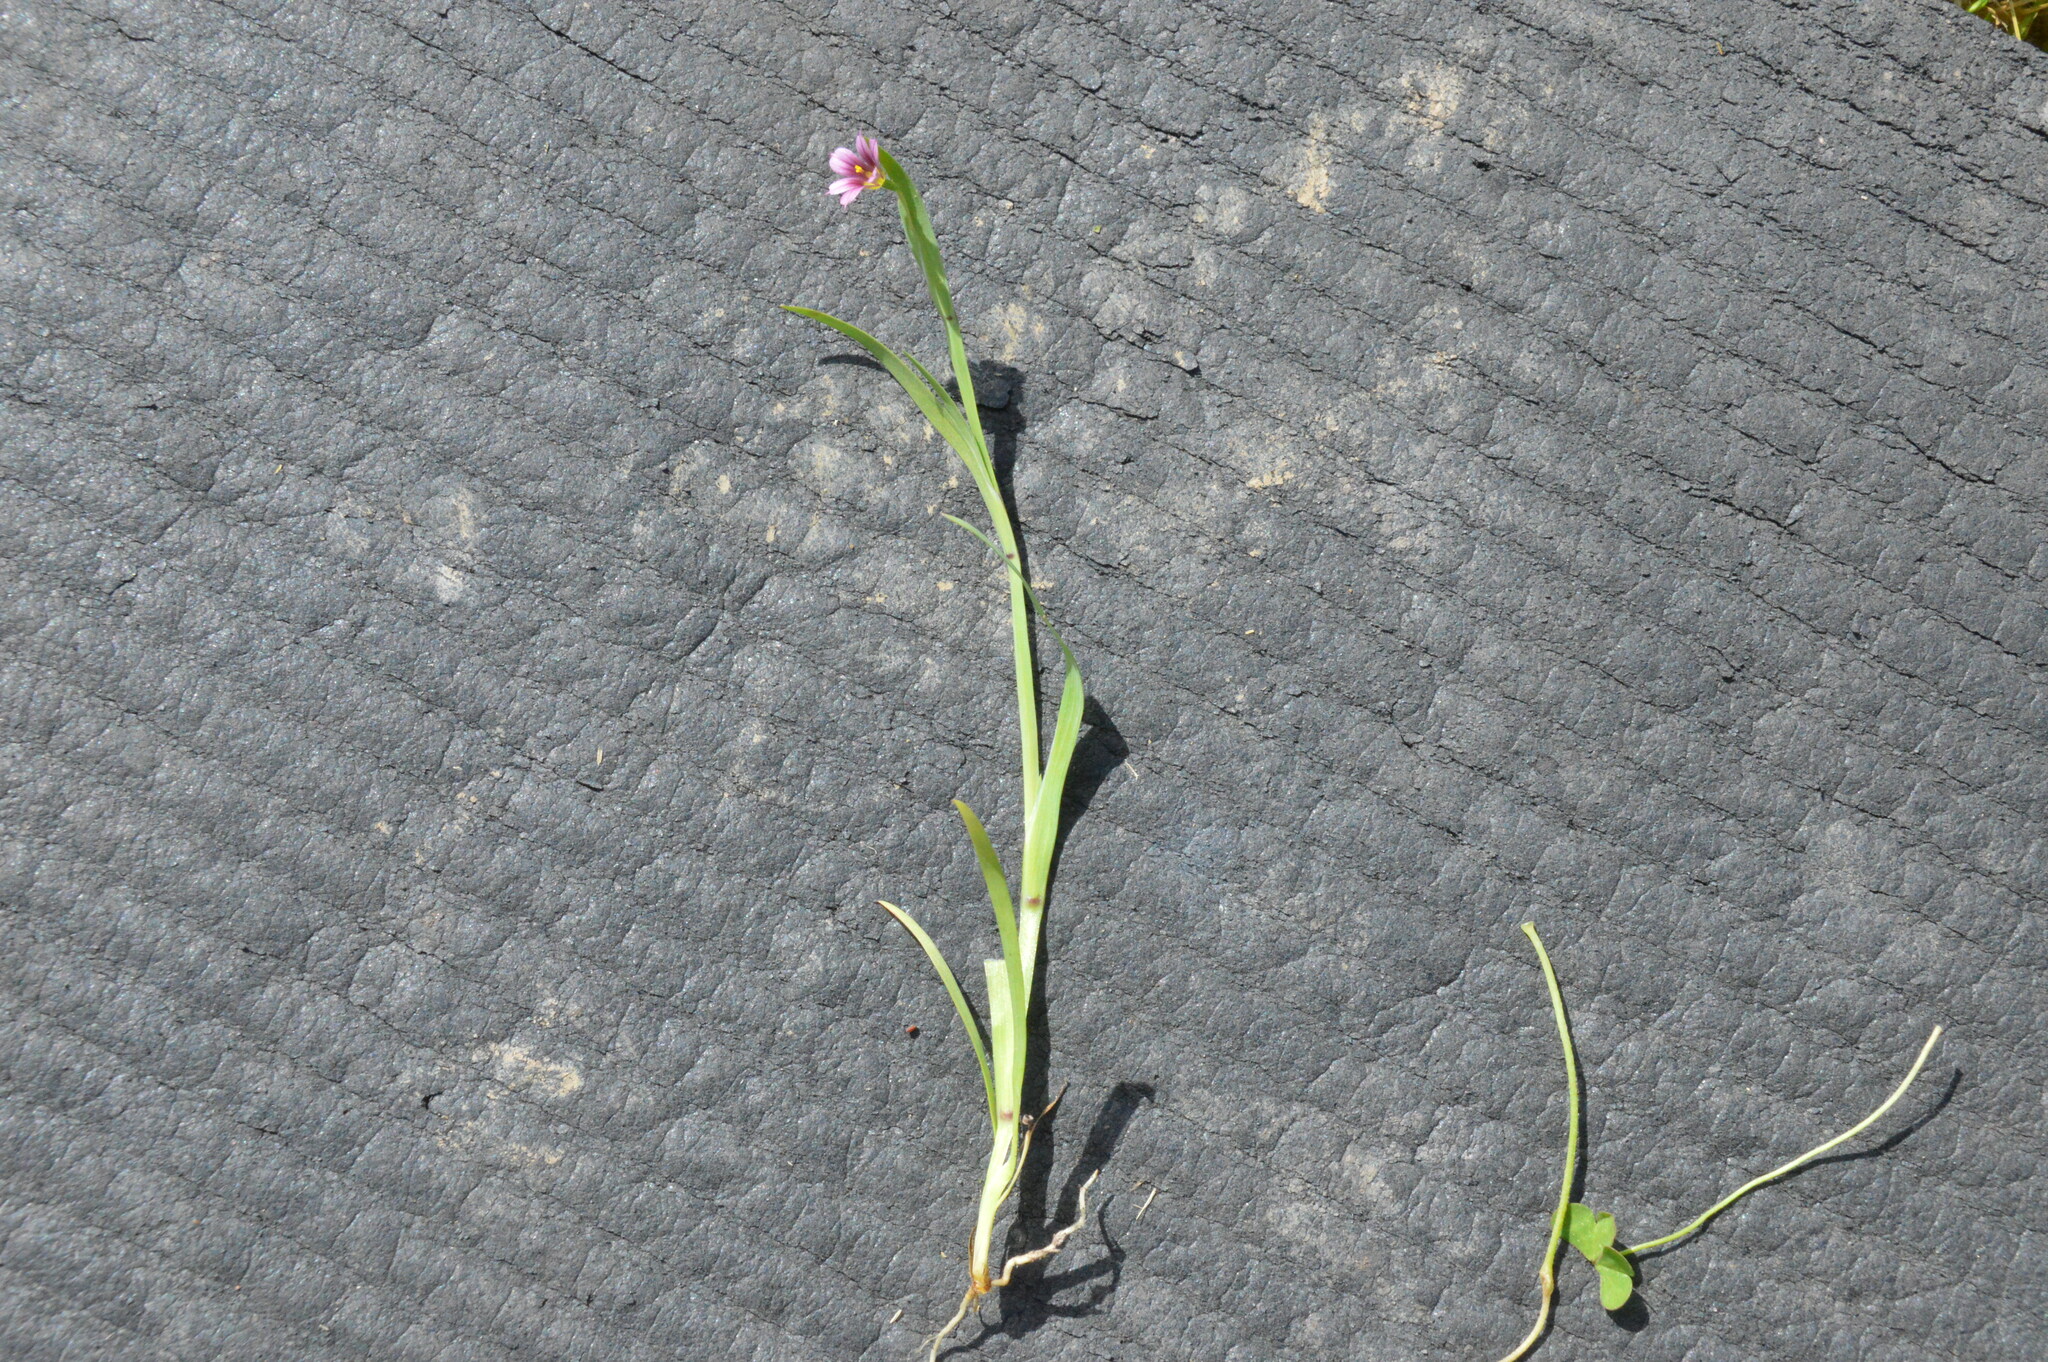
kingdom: Plantae
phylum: Tracheophyta
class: Liliopsida
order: Asparagales
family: Iridaceae
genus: Sisyrinchium
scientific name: Sisyrinchium minus
